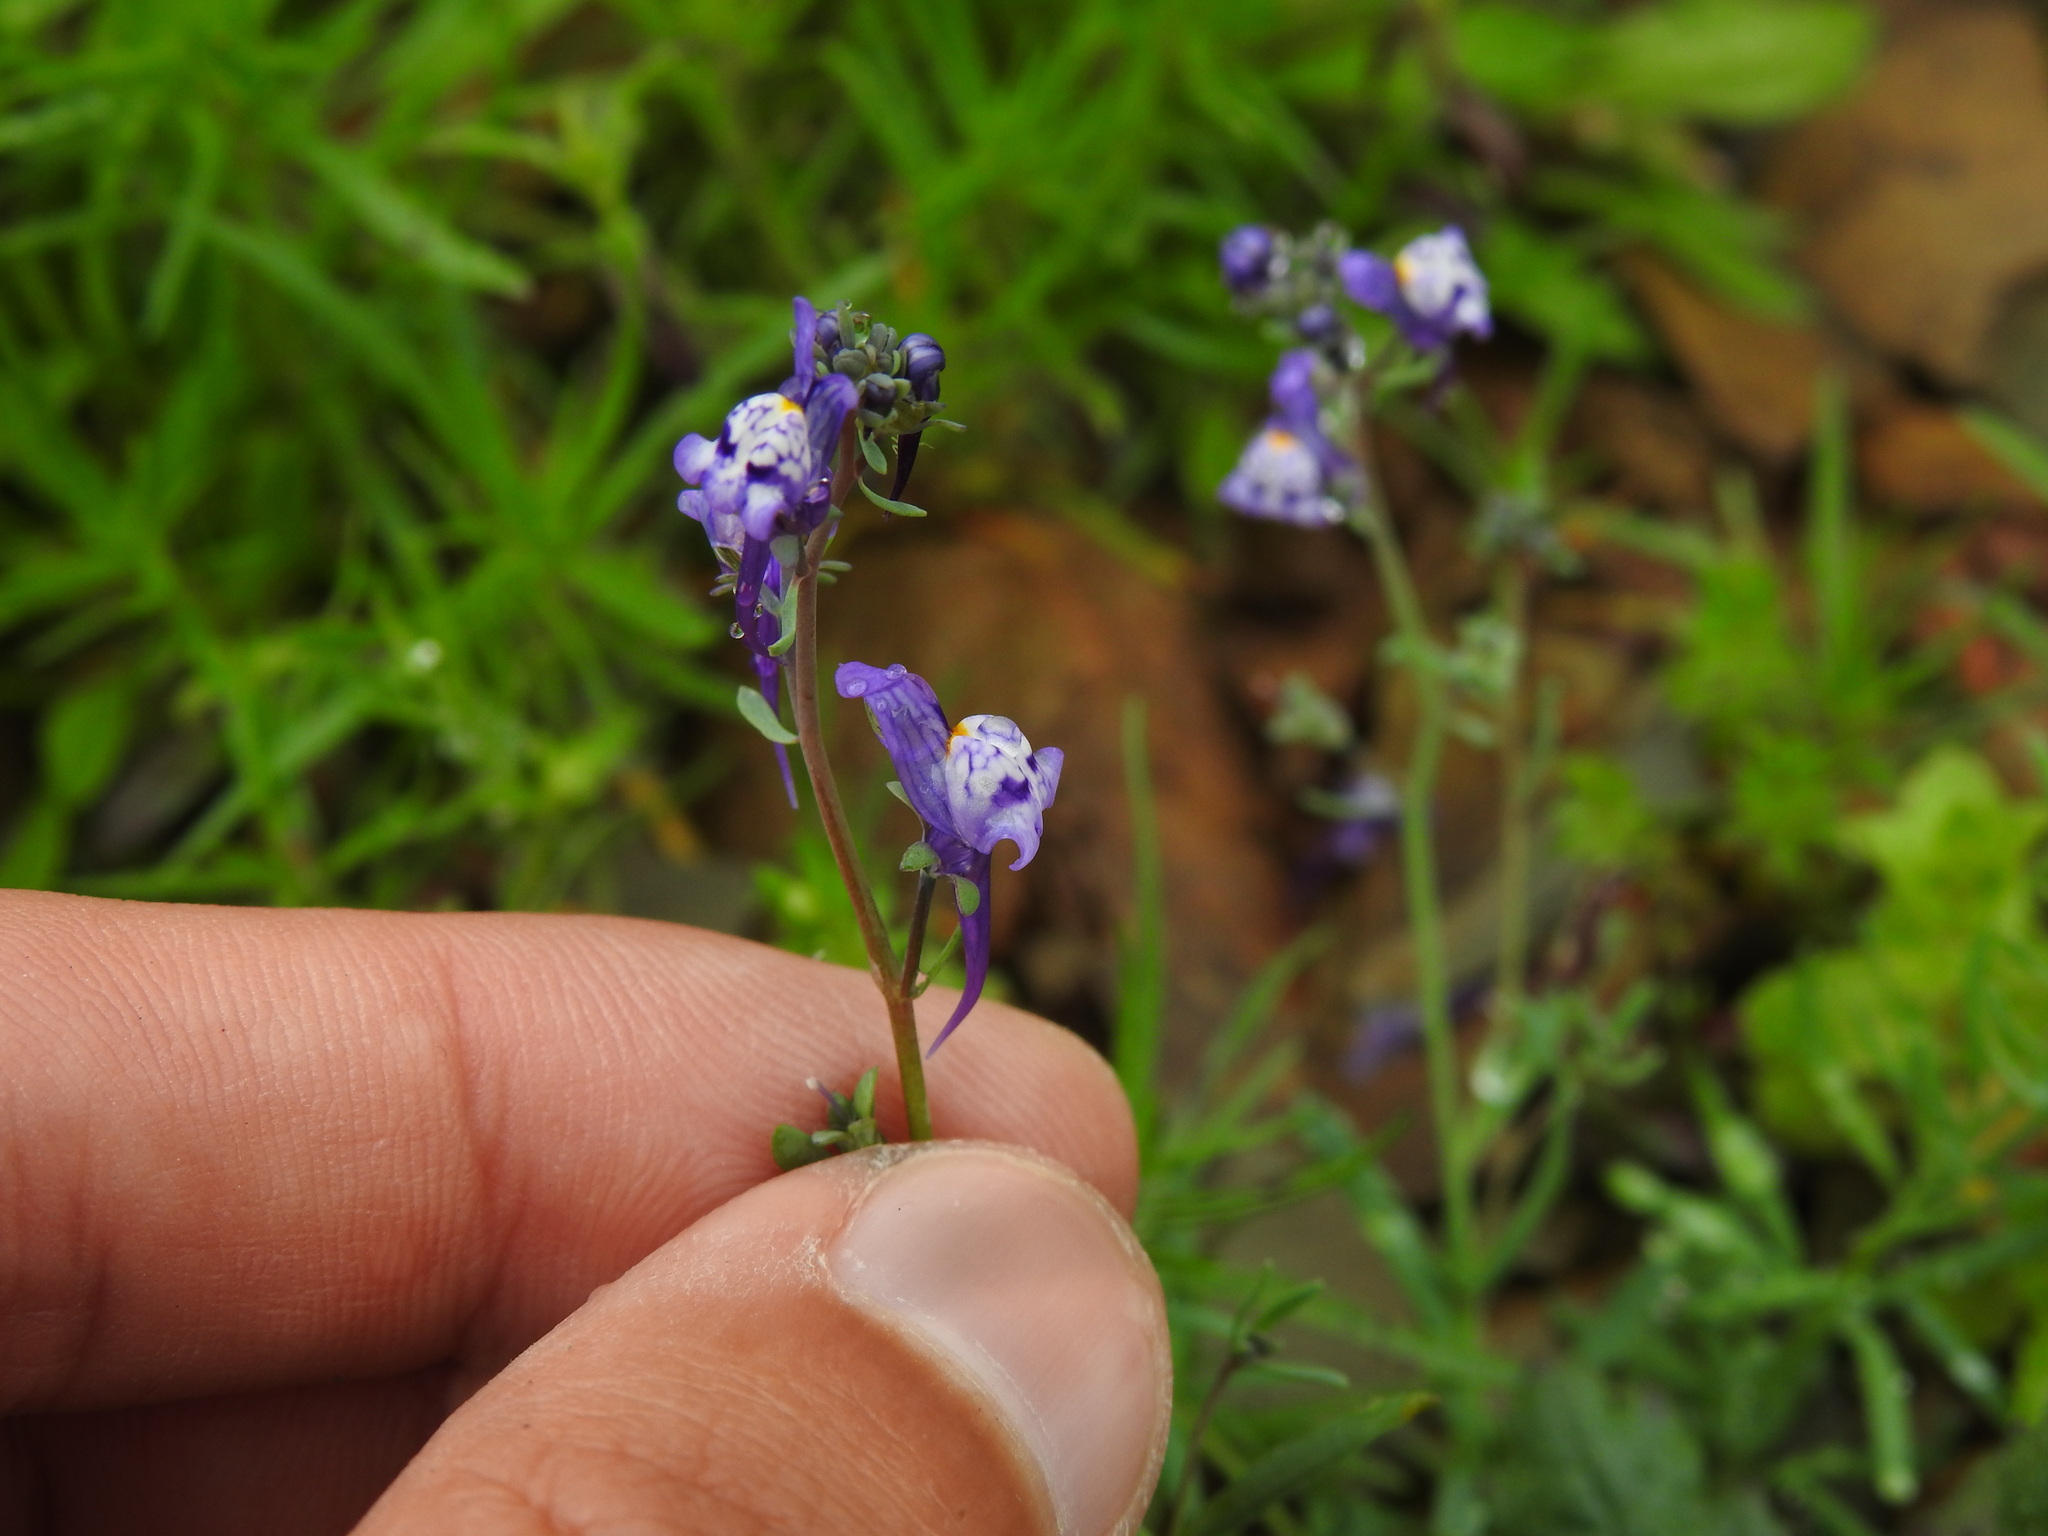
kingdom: Plantae
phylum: Tracheophyta
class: Magnoliopsida
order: Lamiales
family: Plantaginaceae
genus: Linaria
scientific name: Linaria pseudamethystea
